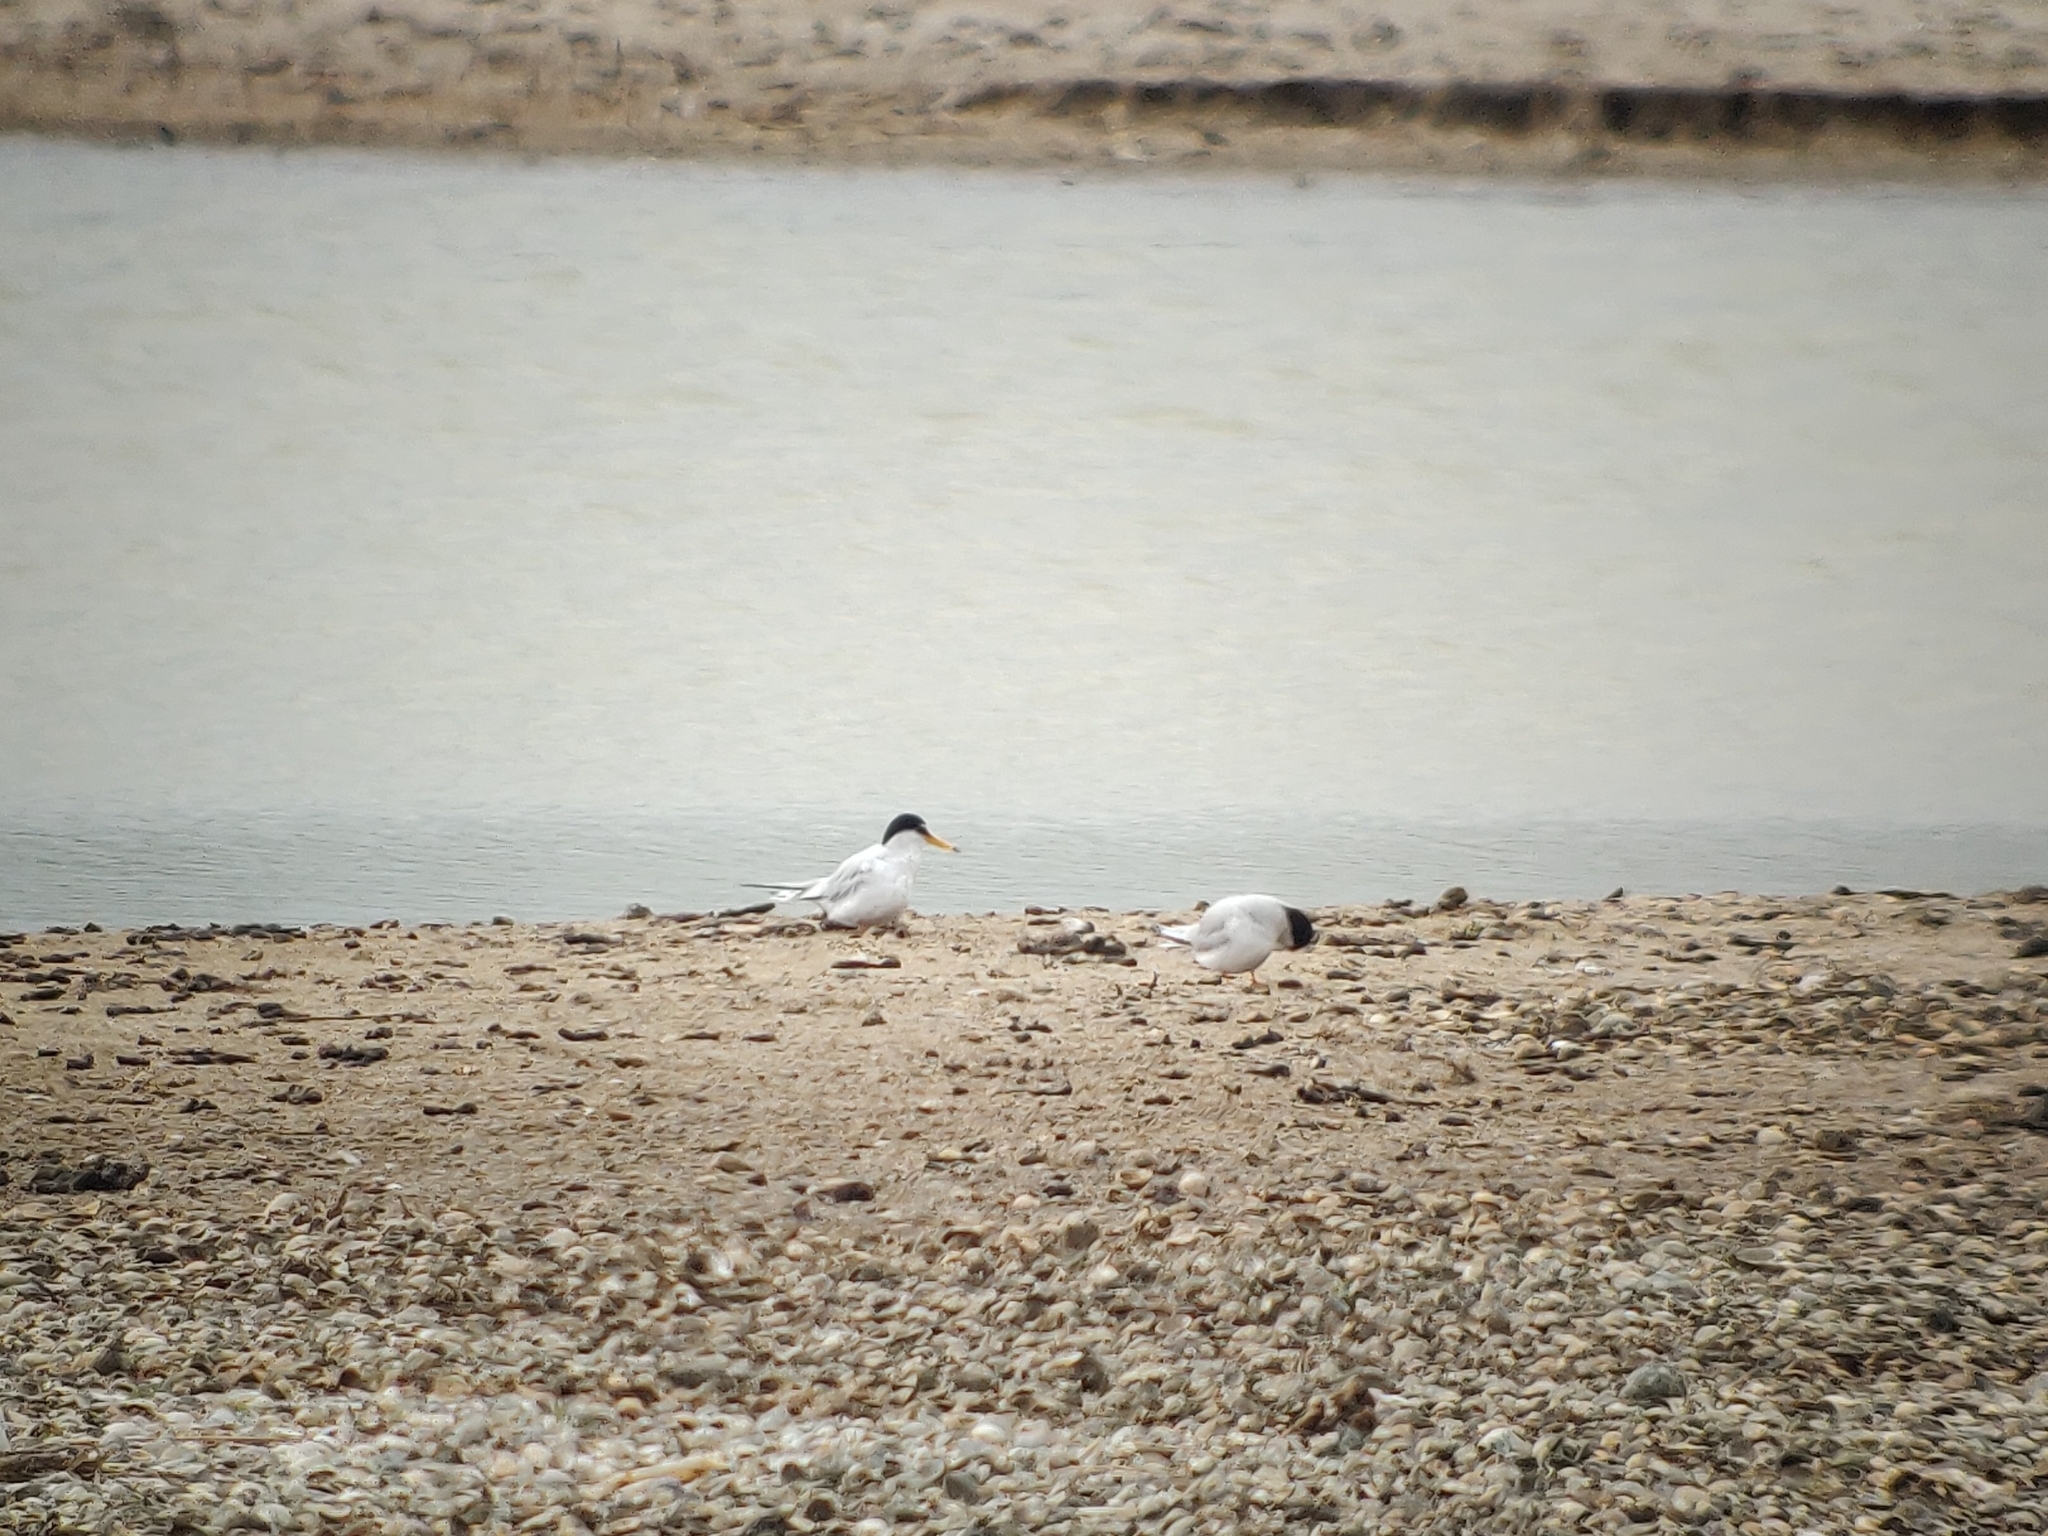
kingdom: Animalia
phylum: Chordata
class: Aves
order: Charadriiformes
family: Laridae
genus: Sternula
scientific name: Sternula albifrons
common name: Little tern
